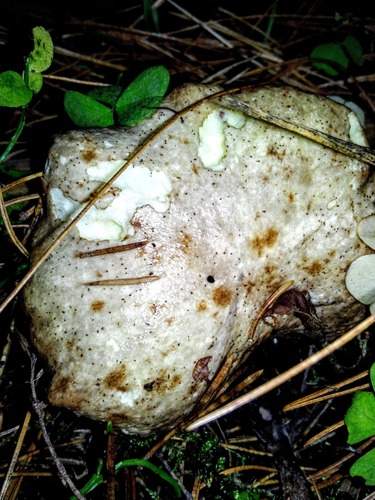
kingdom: Fungi
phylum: Basidiomycota
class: Agaricomycetes
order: Boletales
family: Suillaceae
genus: Suillus
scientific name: Suillus placidus
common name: Slippery white bolete
